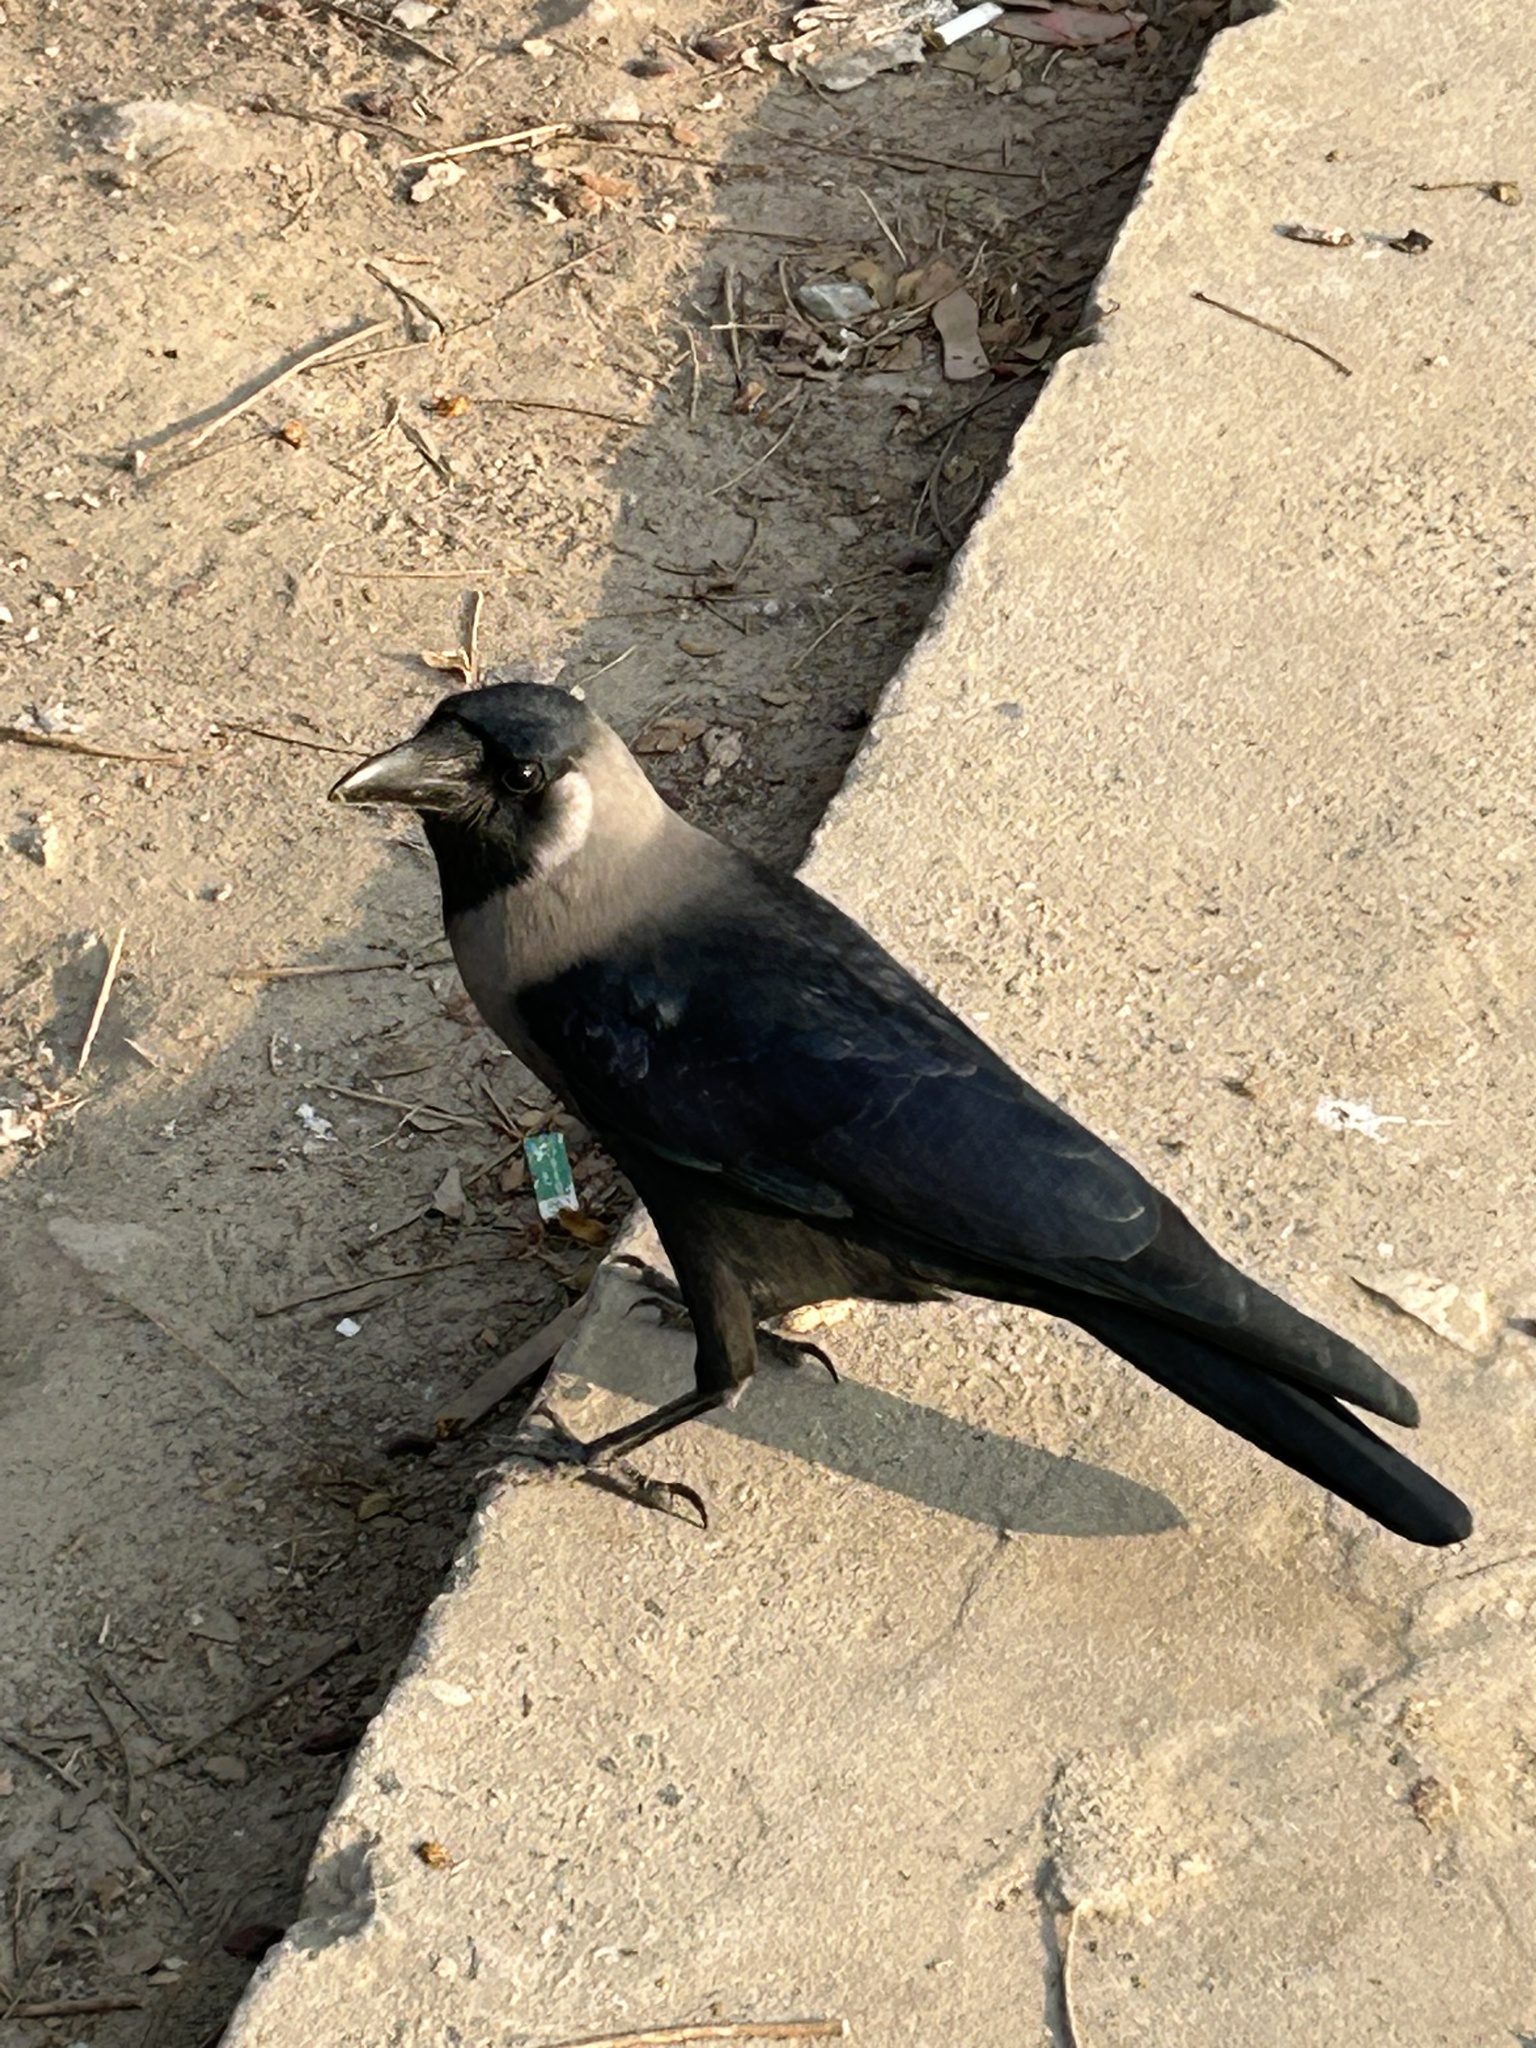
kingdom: Animalia
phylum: Chordata
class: Aves
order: Passeriformes
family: Corvidae
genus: Corvus
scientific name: Corvus splendens
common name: House crow
